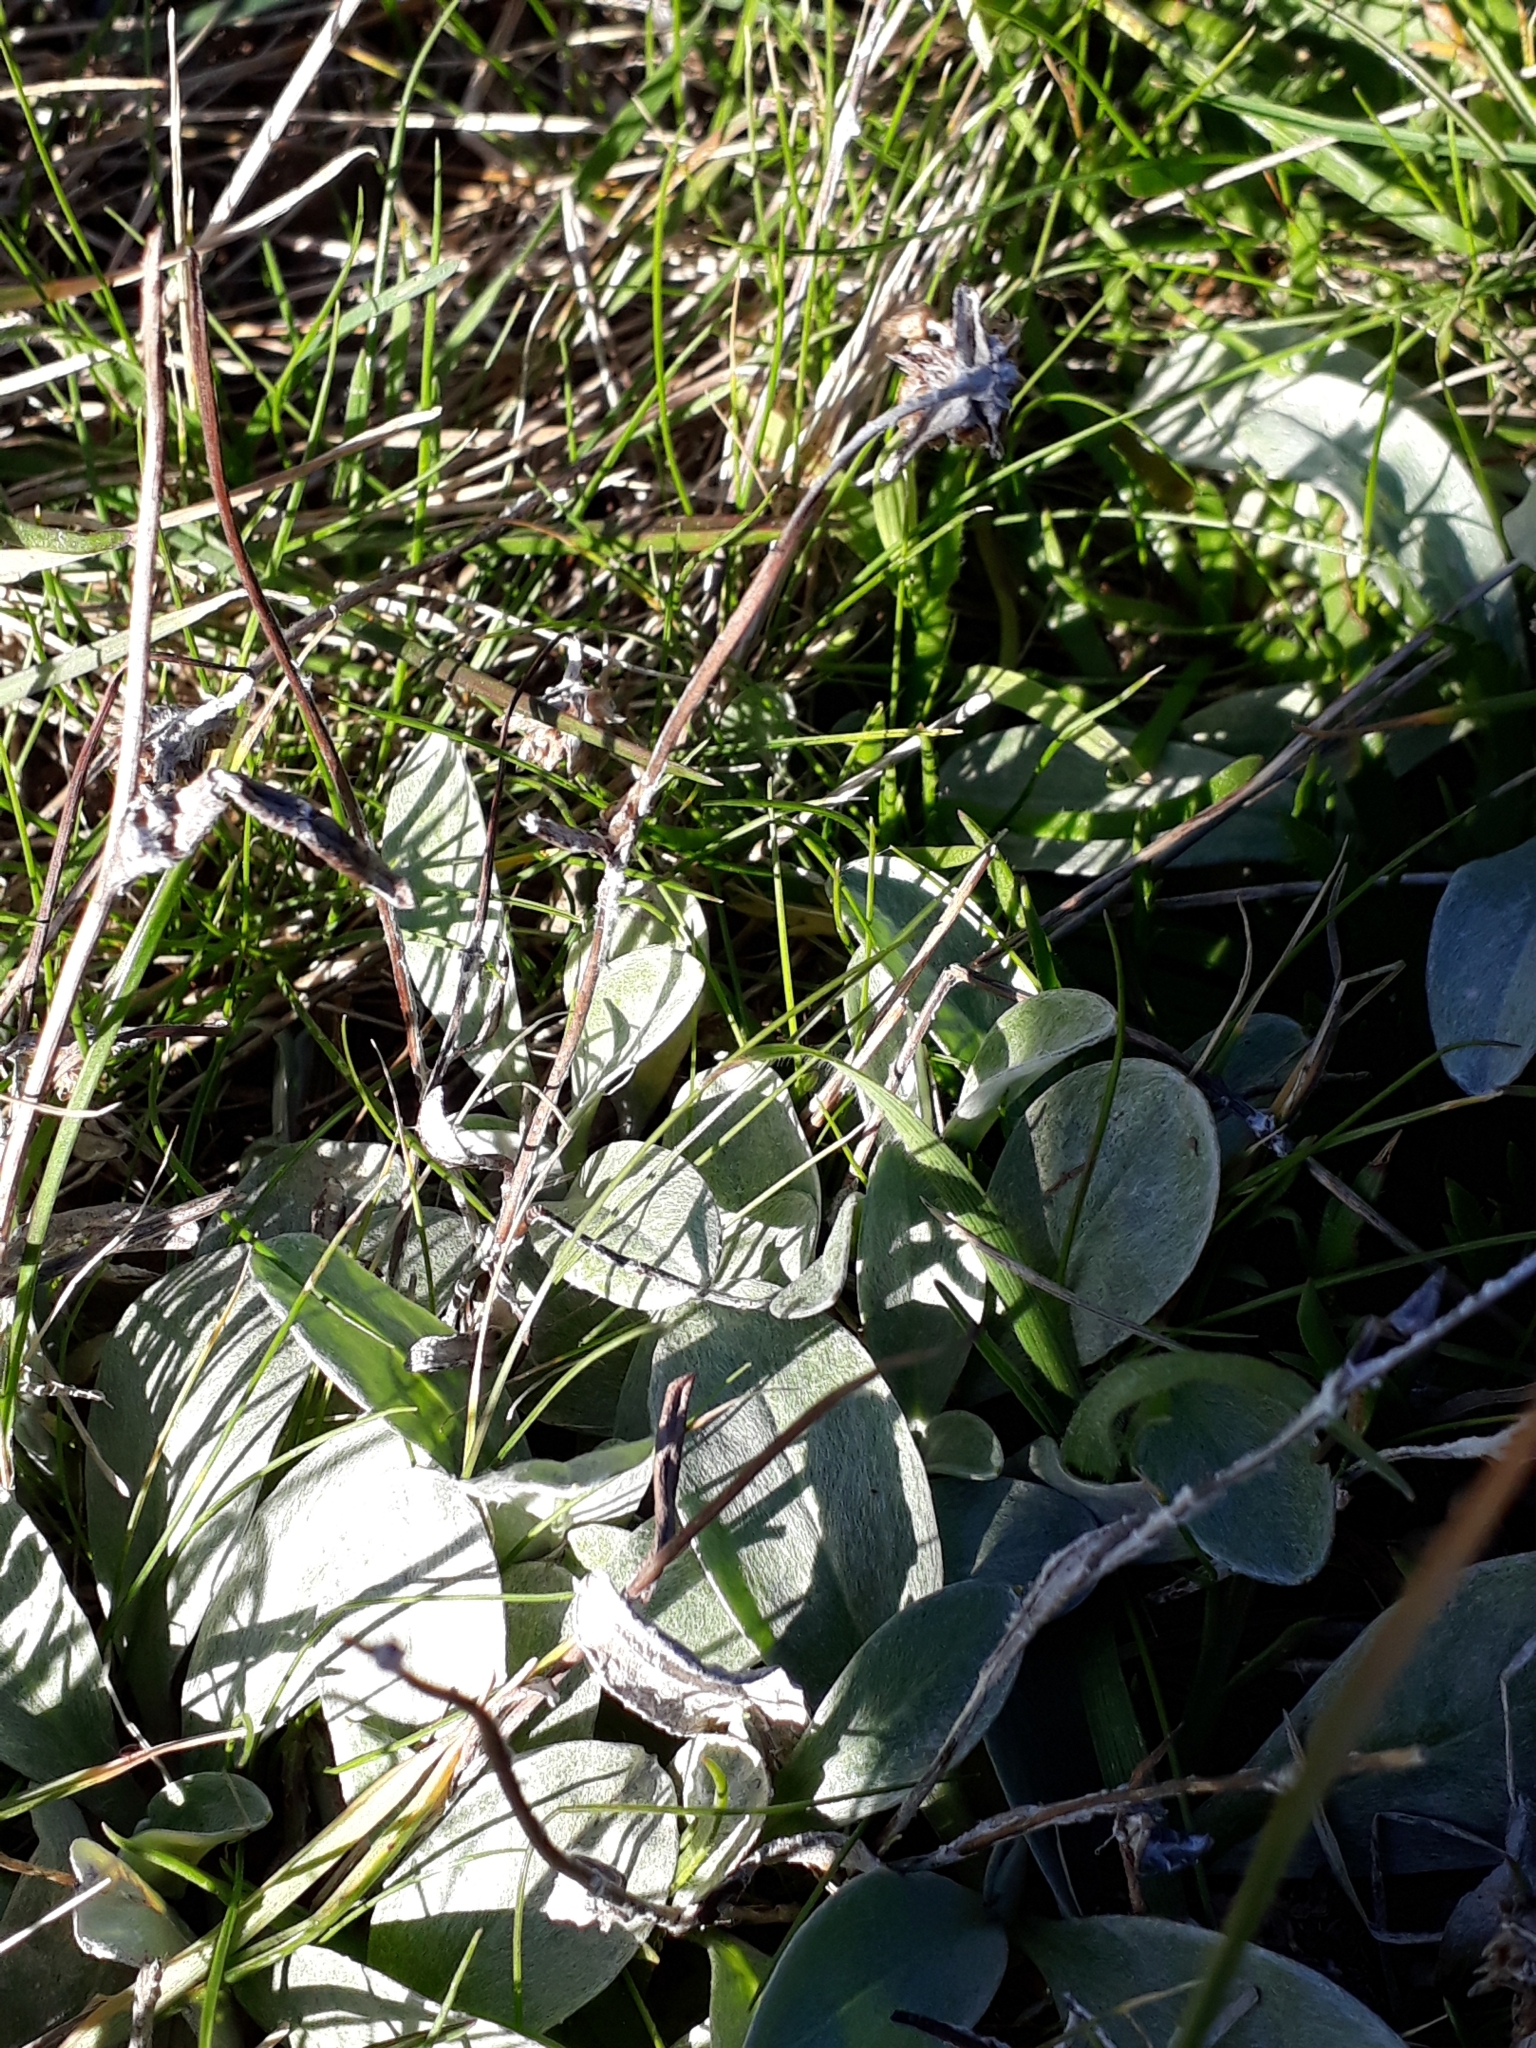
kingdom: Plantae
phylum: Tracheophyta
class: Magnoliopsida
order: Asterales
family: Asteraceae
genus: Euchiton
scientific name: Euchiton audax
